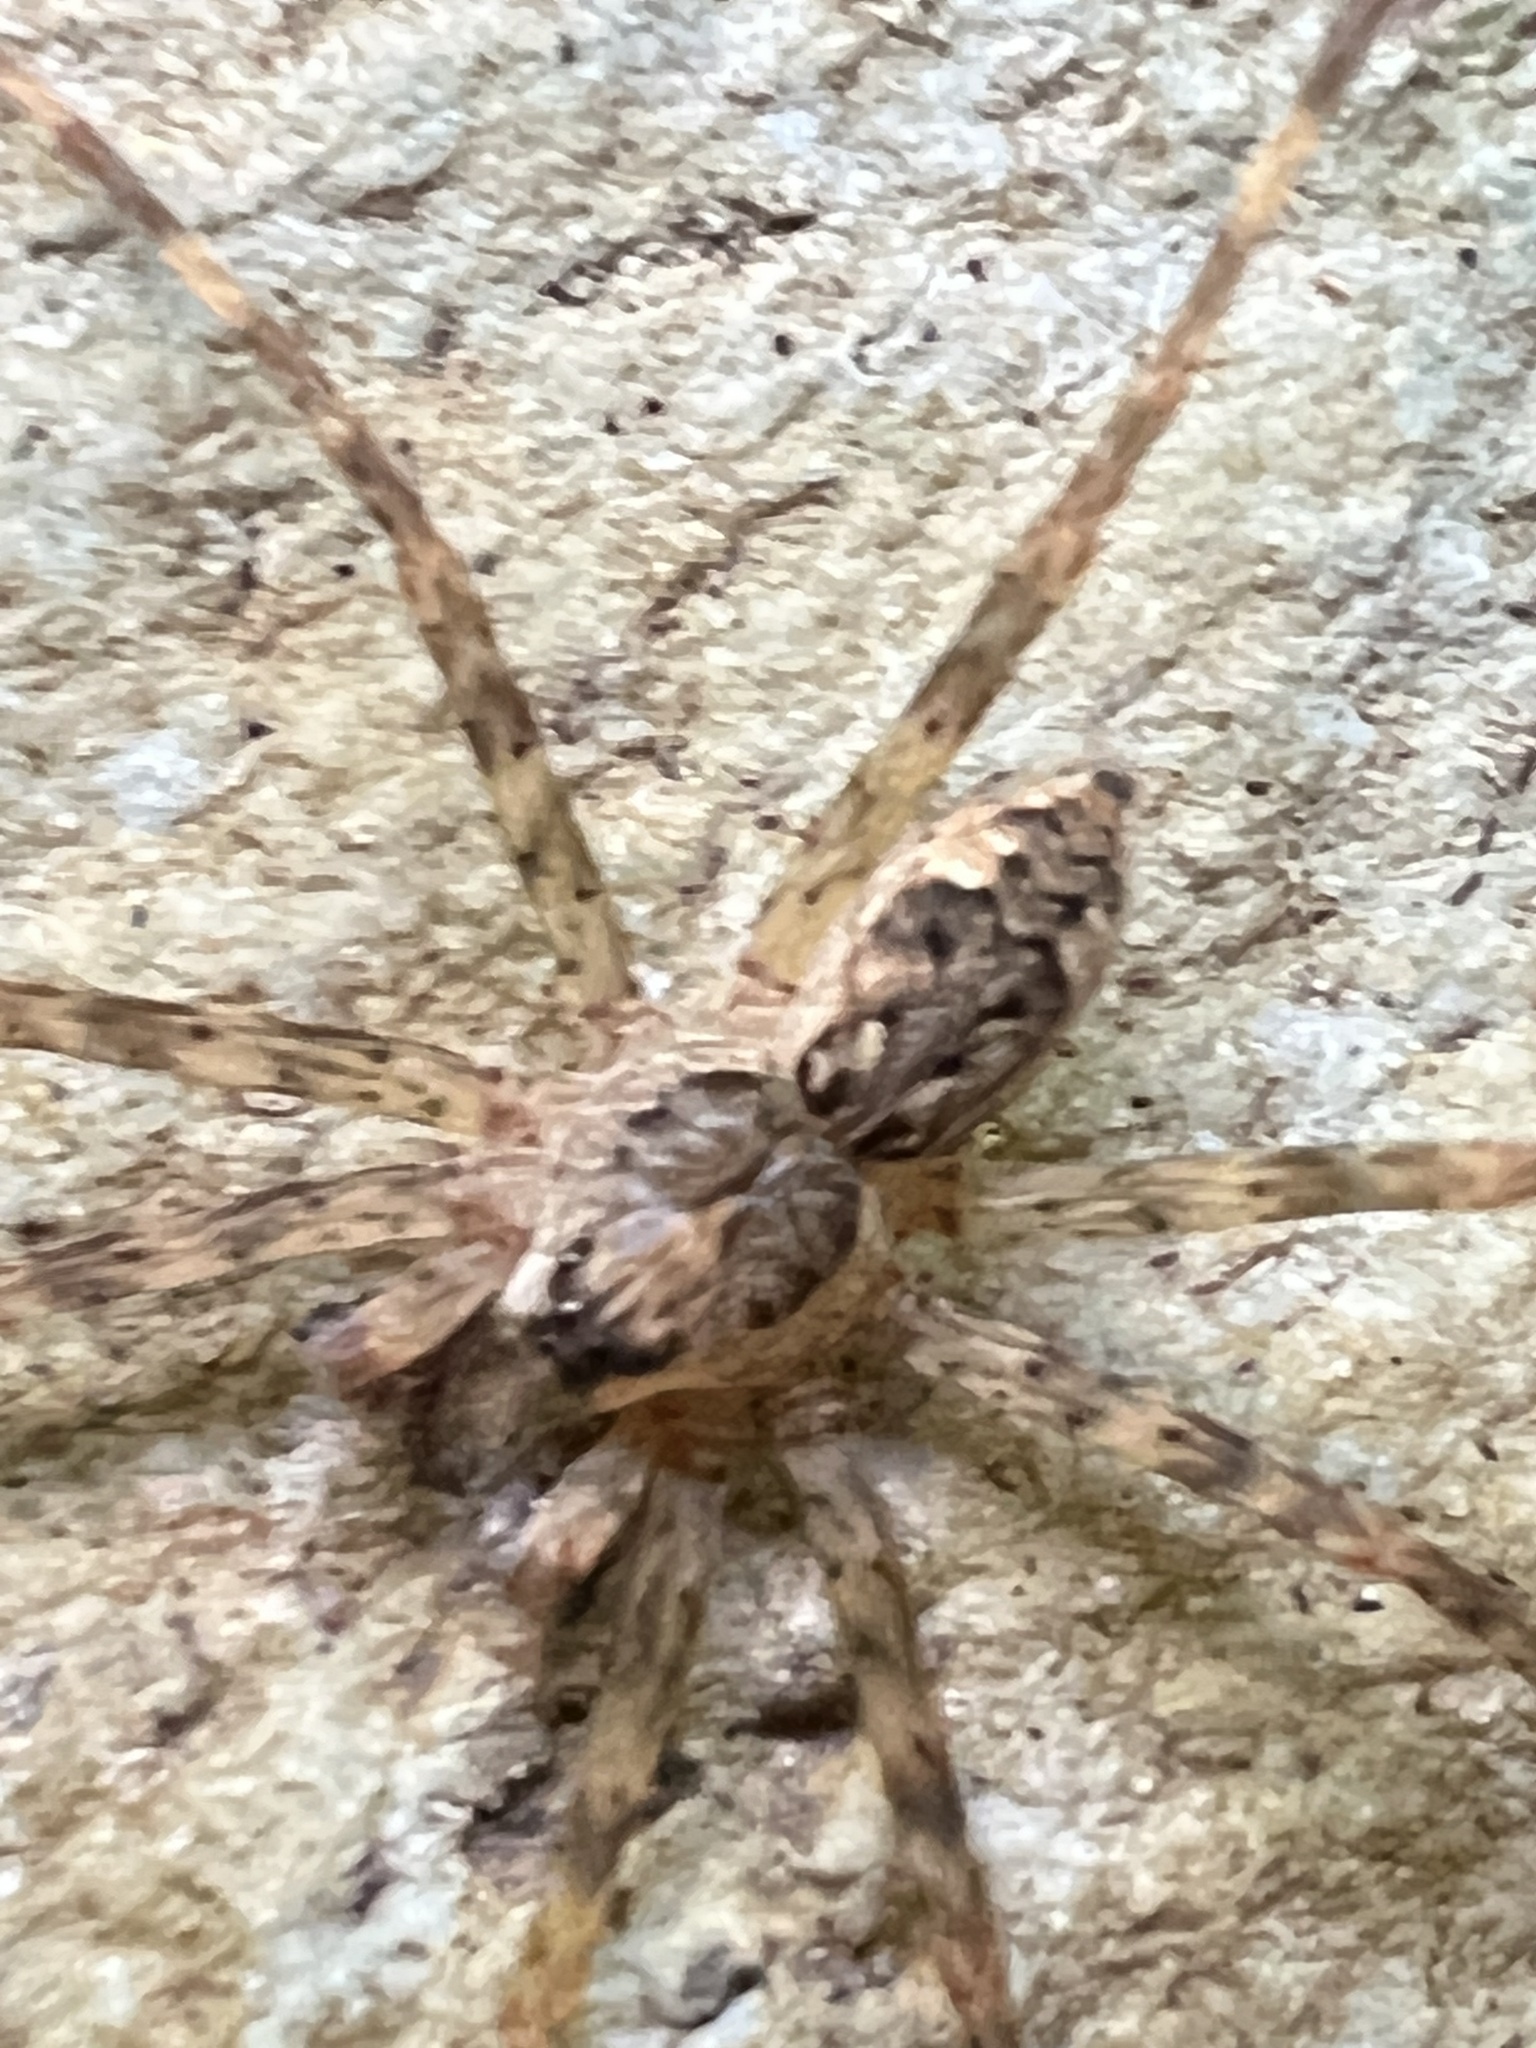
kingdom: Animalia
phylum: Arthropoda
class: Arachnida
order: Araneae
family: Pisauridae
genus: Dolomedes
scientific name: Dolomedes tenebrosus
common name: Dark fishing spider
